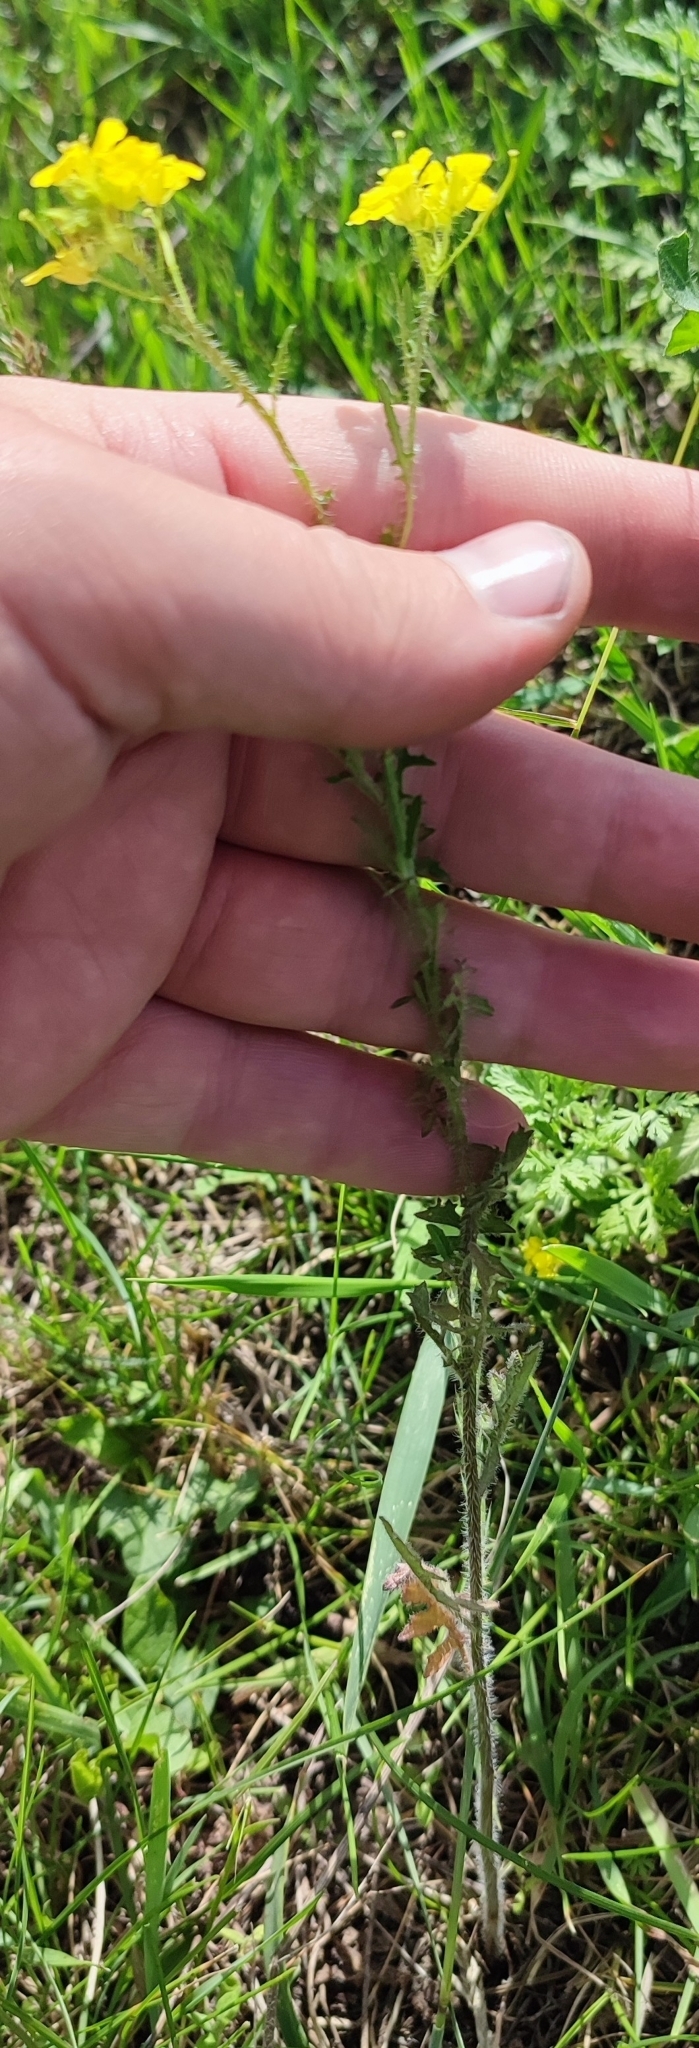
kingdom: Plantae
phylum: Tracheophyta
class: Magnoliopsida
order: Brassicales
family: Brassicaceae
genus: Sisymbrium
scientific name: Sisymbrium loeselii
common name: False london-rocket
